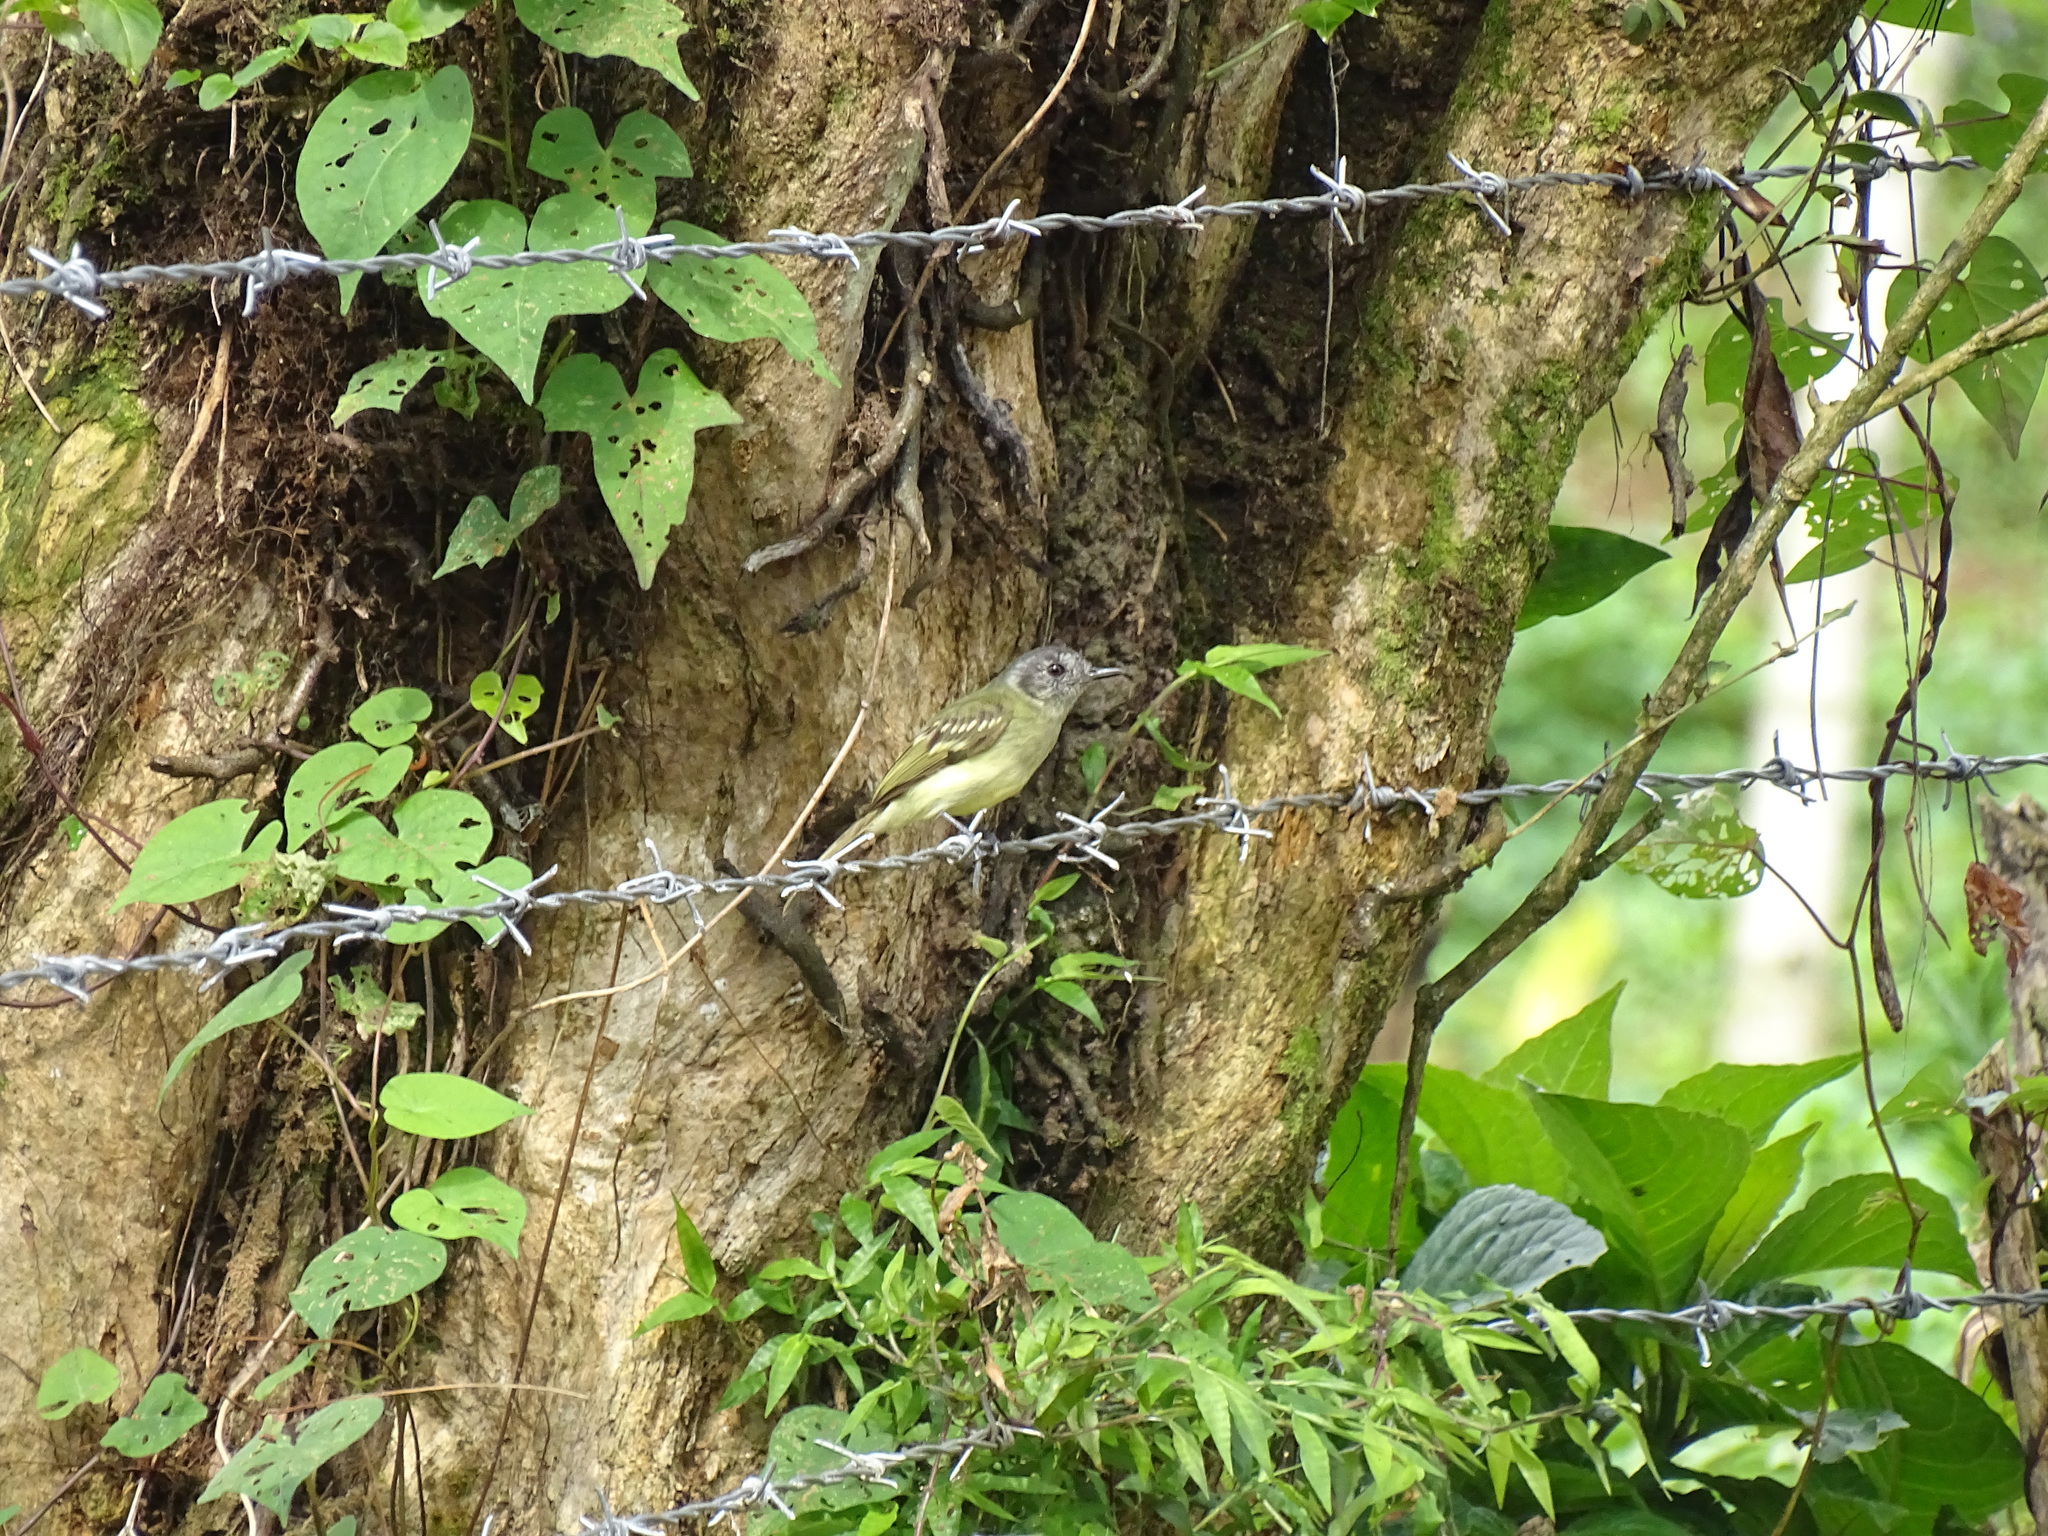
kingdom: Animalia
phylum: Chordata
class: Aves
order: Passeriformes
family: Tyrannidae
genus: Leptopogon
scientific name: Leptopogon superciliaris
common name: Slaty-capped flycatcher
